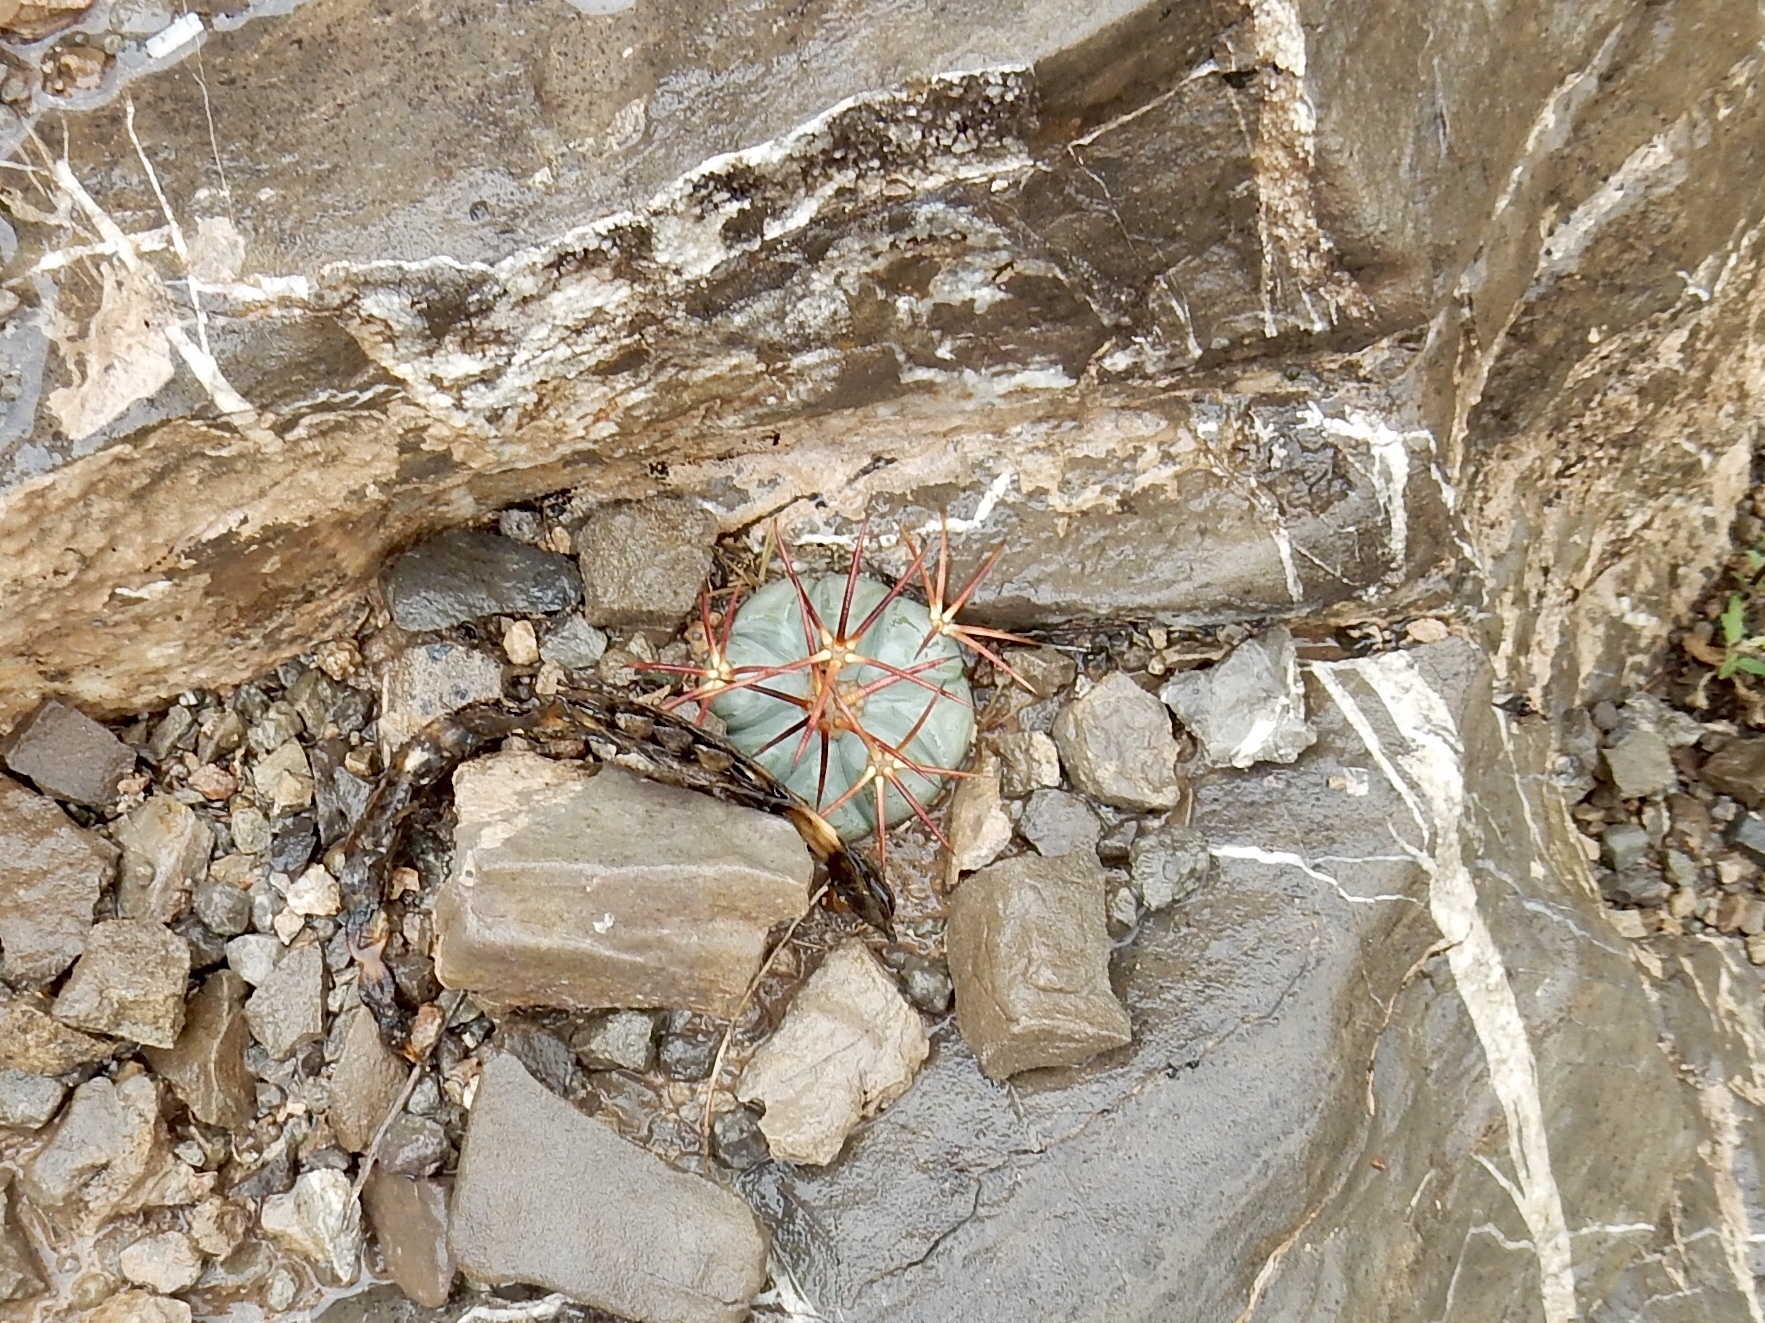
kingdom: Plantae
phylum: Tracheophyta
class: Magnoliopsida
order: Caryophyllales
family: Cactaceae
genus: Echinocactus
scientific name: Echinocactus horizonthalonius
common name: Devilshead
